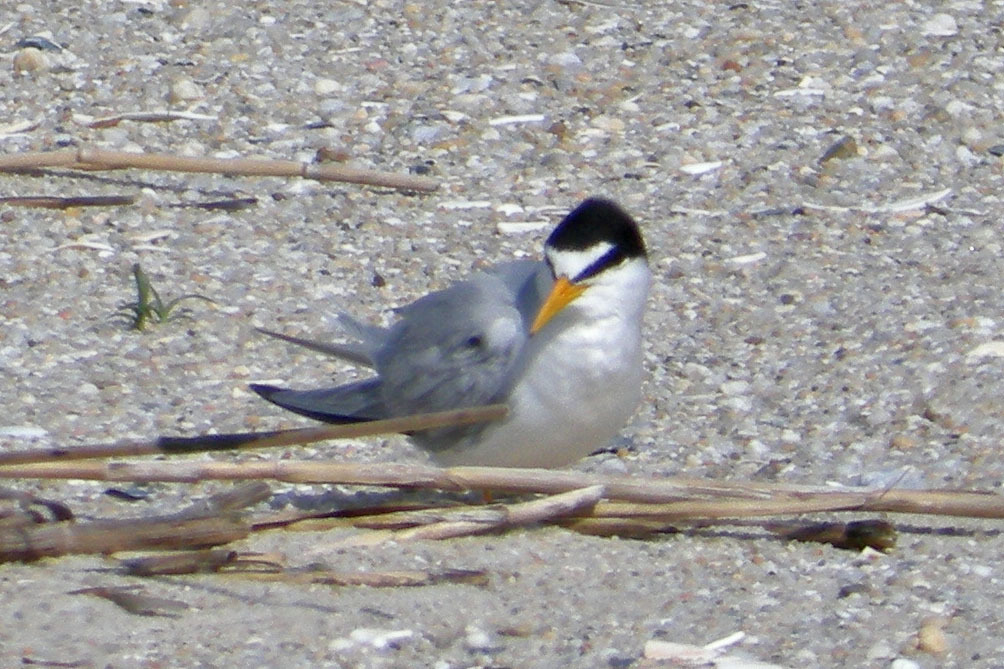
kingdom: Animalia
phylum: Chordata
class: Aves
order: Charadriiformes
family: Laridae
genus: Sternula
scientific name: Sternula antillarum
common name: Least tern
